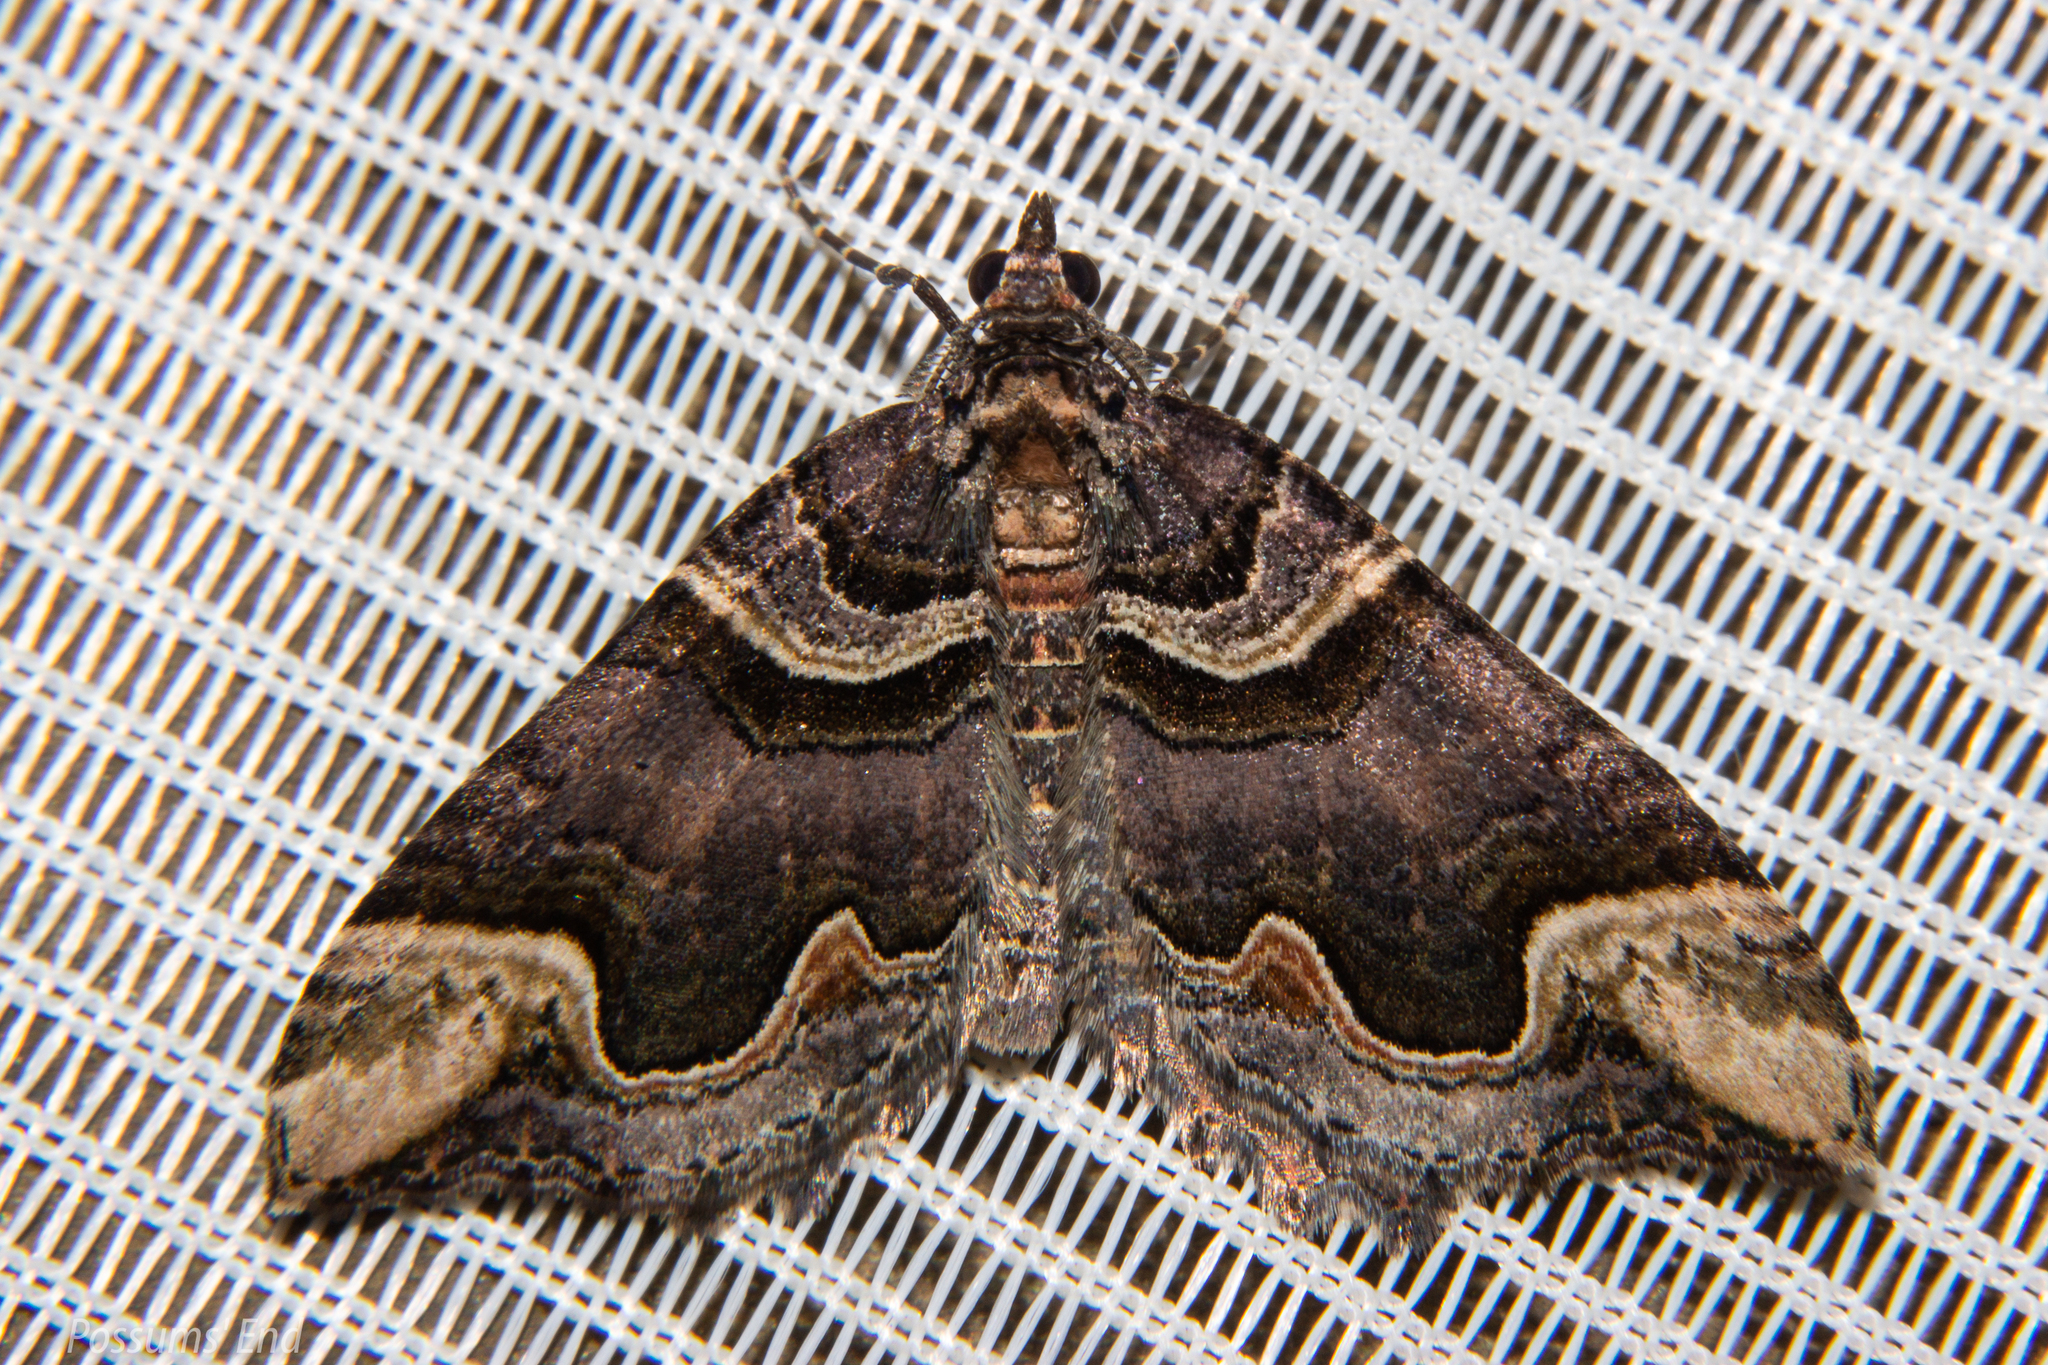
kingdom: Animalia
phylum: Arthropoda
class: Insecta
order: Lepidoptera
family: Geometridae
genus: Asaphodes
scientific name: Asaphodes chlamydota
